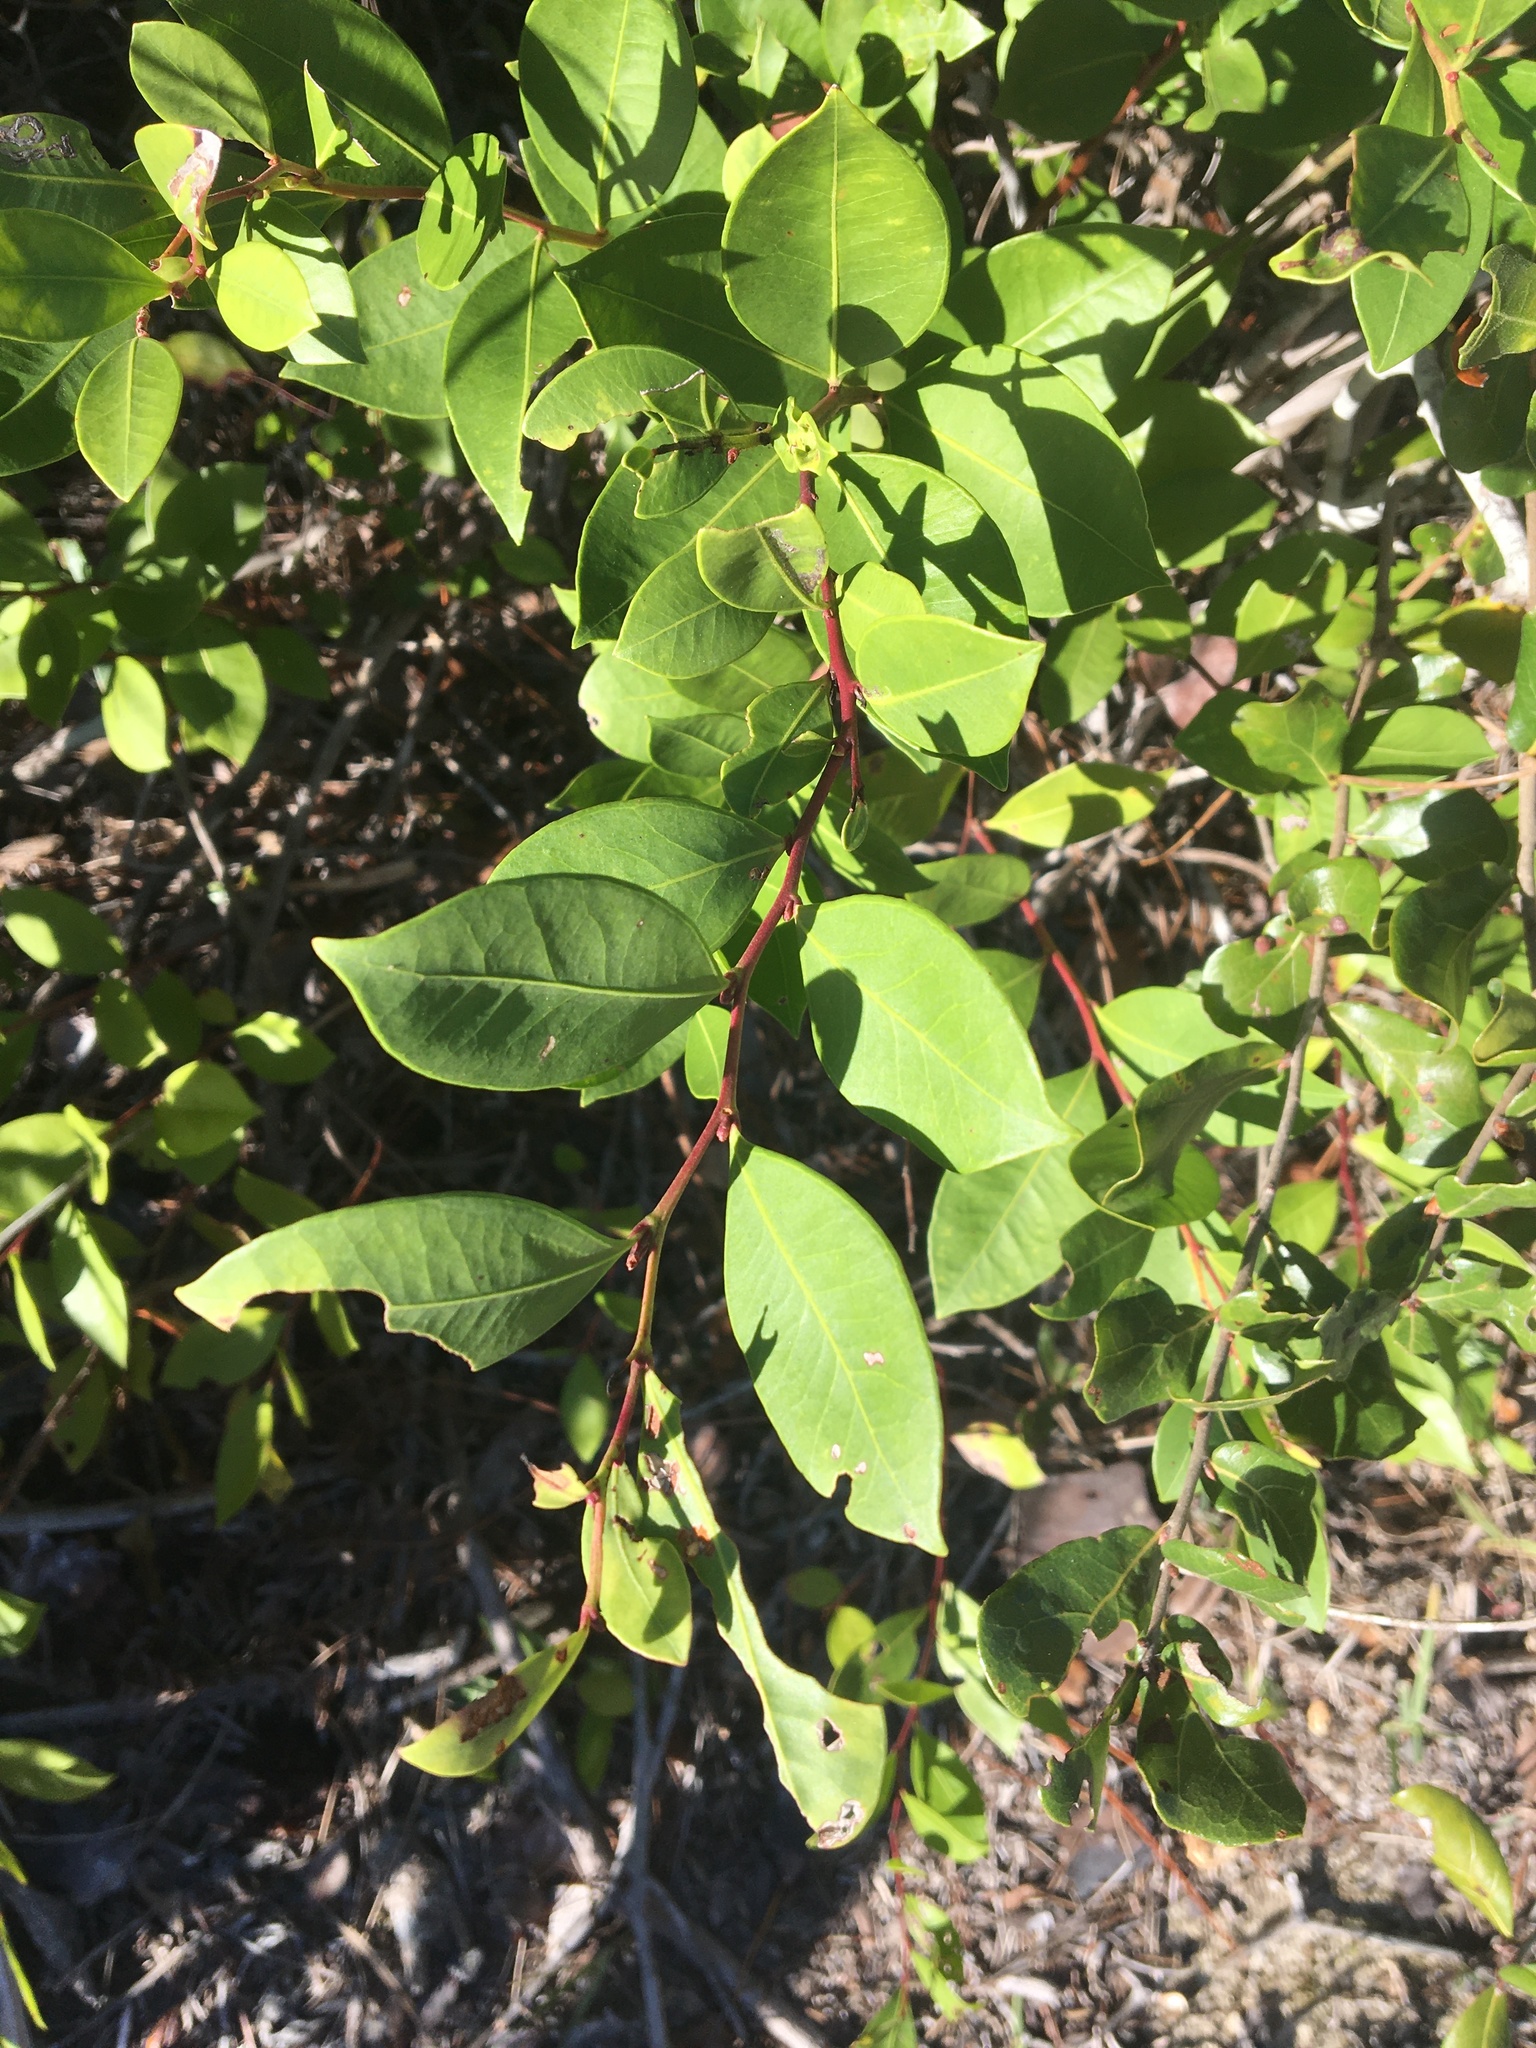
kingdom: Plantae
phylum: Tracheophyta
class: Magnoliopsida
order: Ericales
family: Ericaceae
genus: Lyonia
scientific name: Lyonia lucida
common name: Fetterbush
